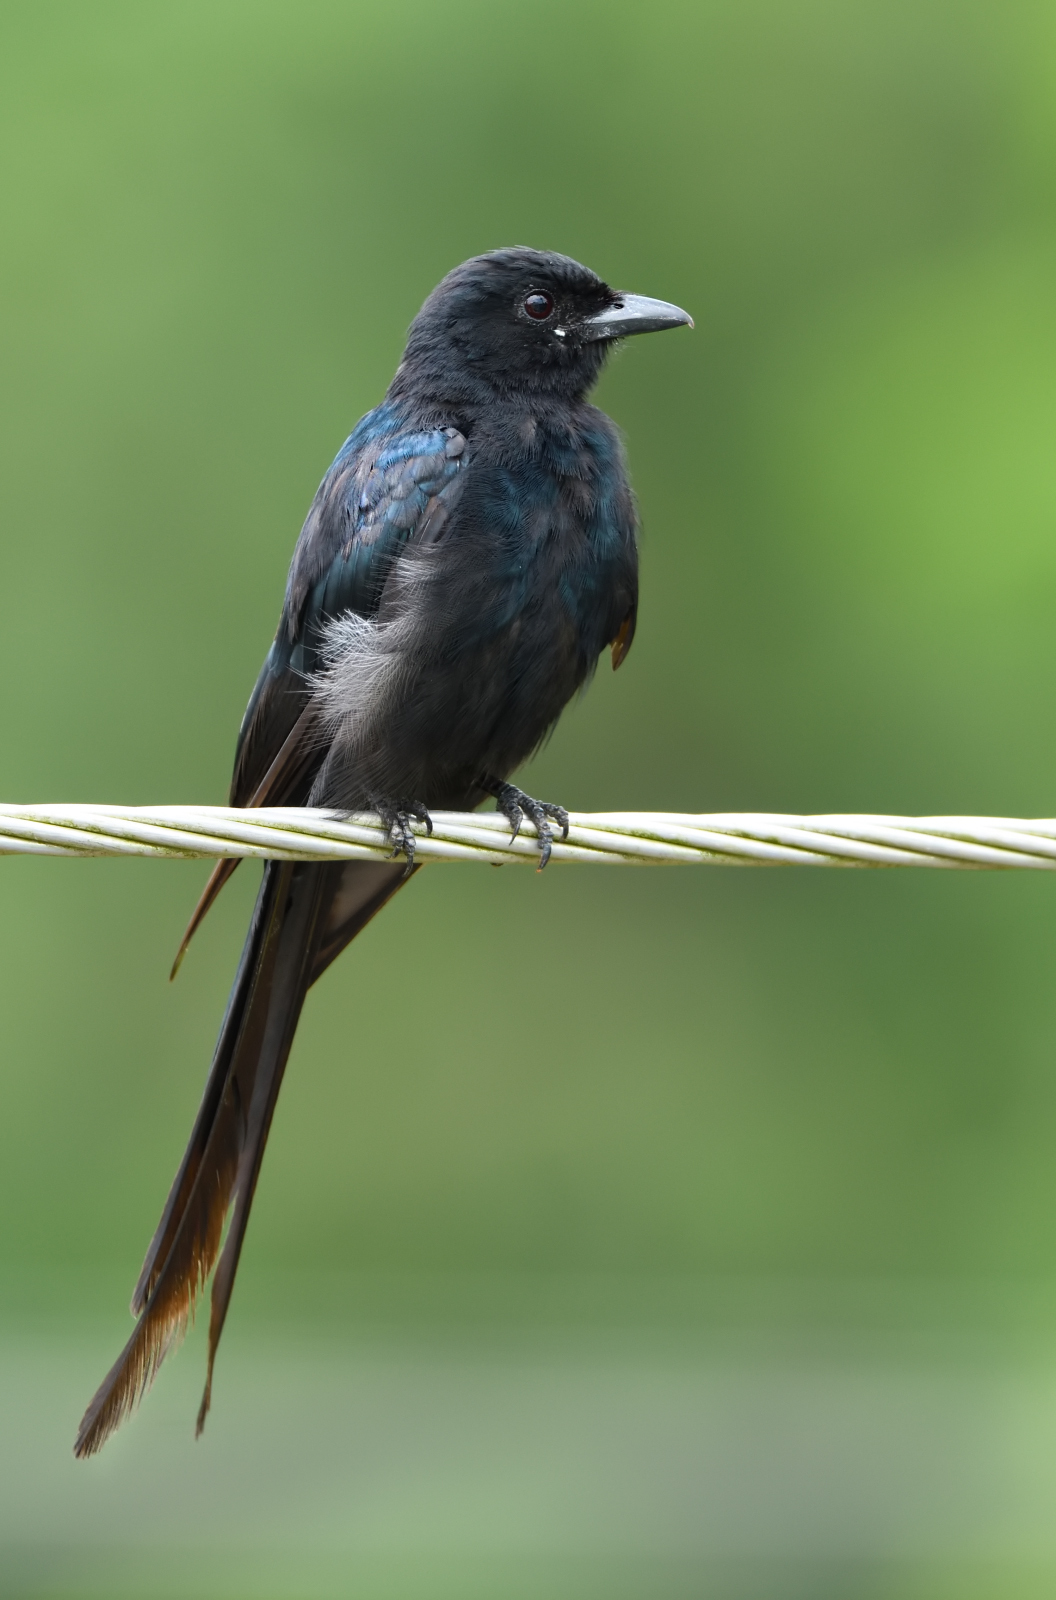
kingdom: Animalia
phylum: Chordata
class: Aves
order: Passeriformes
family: Dicruridae
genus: Dicrurus
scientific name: Dicrurus macrocercus
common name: Black drongo
